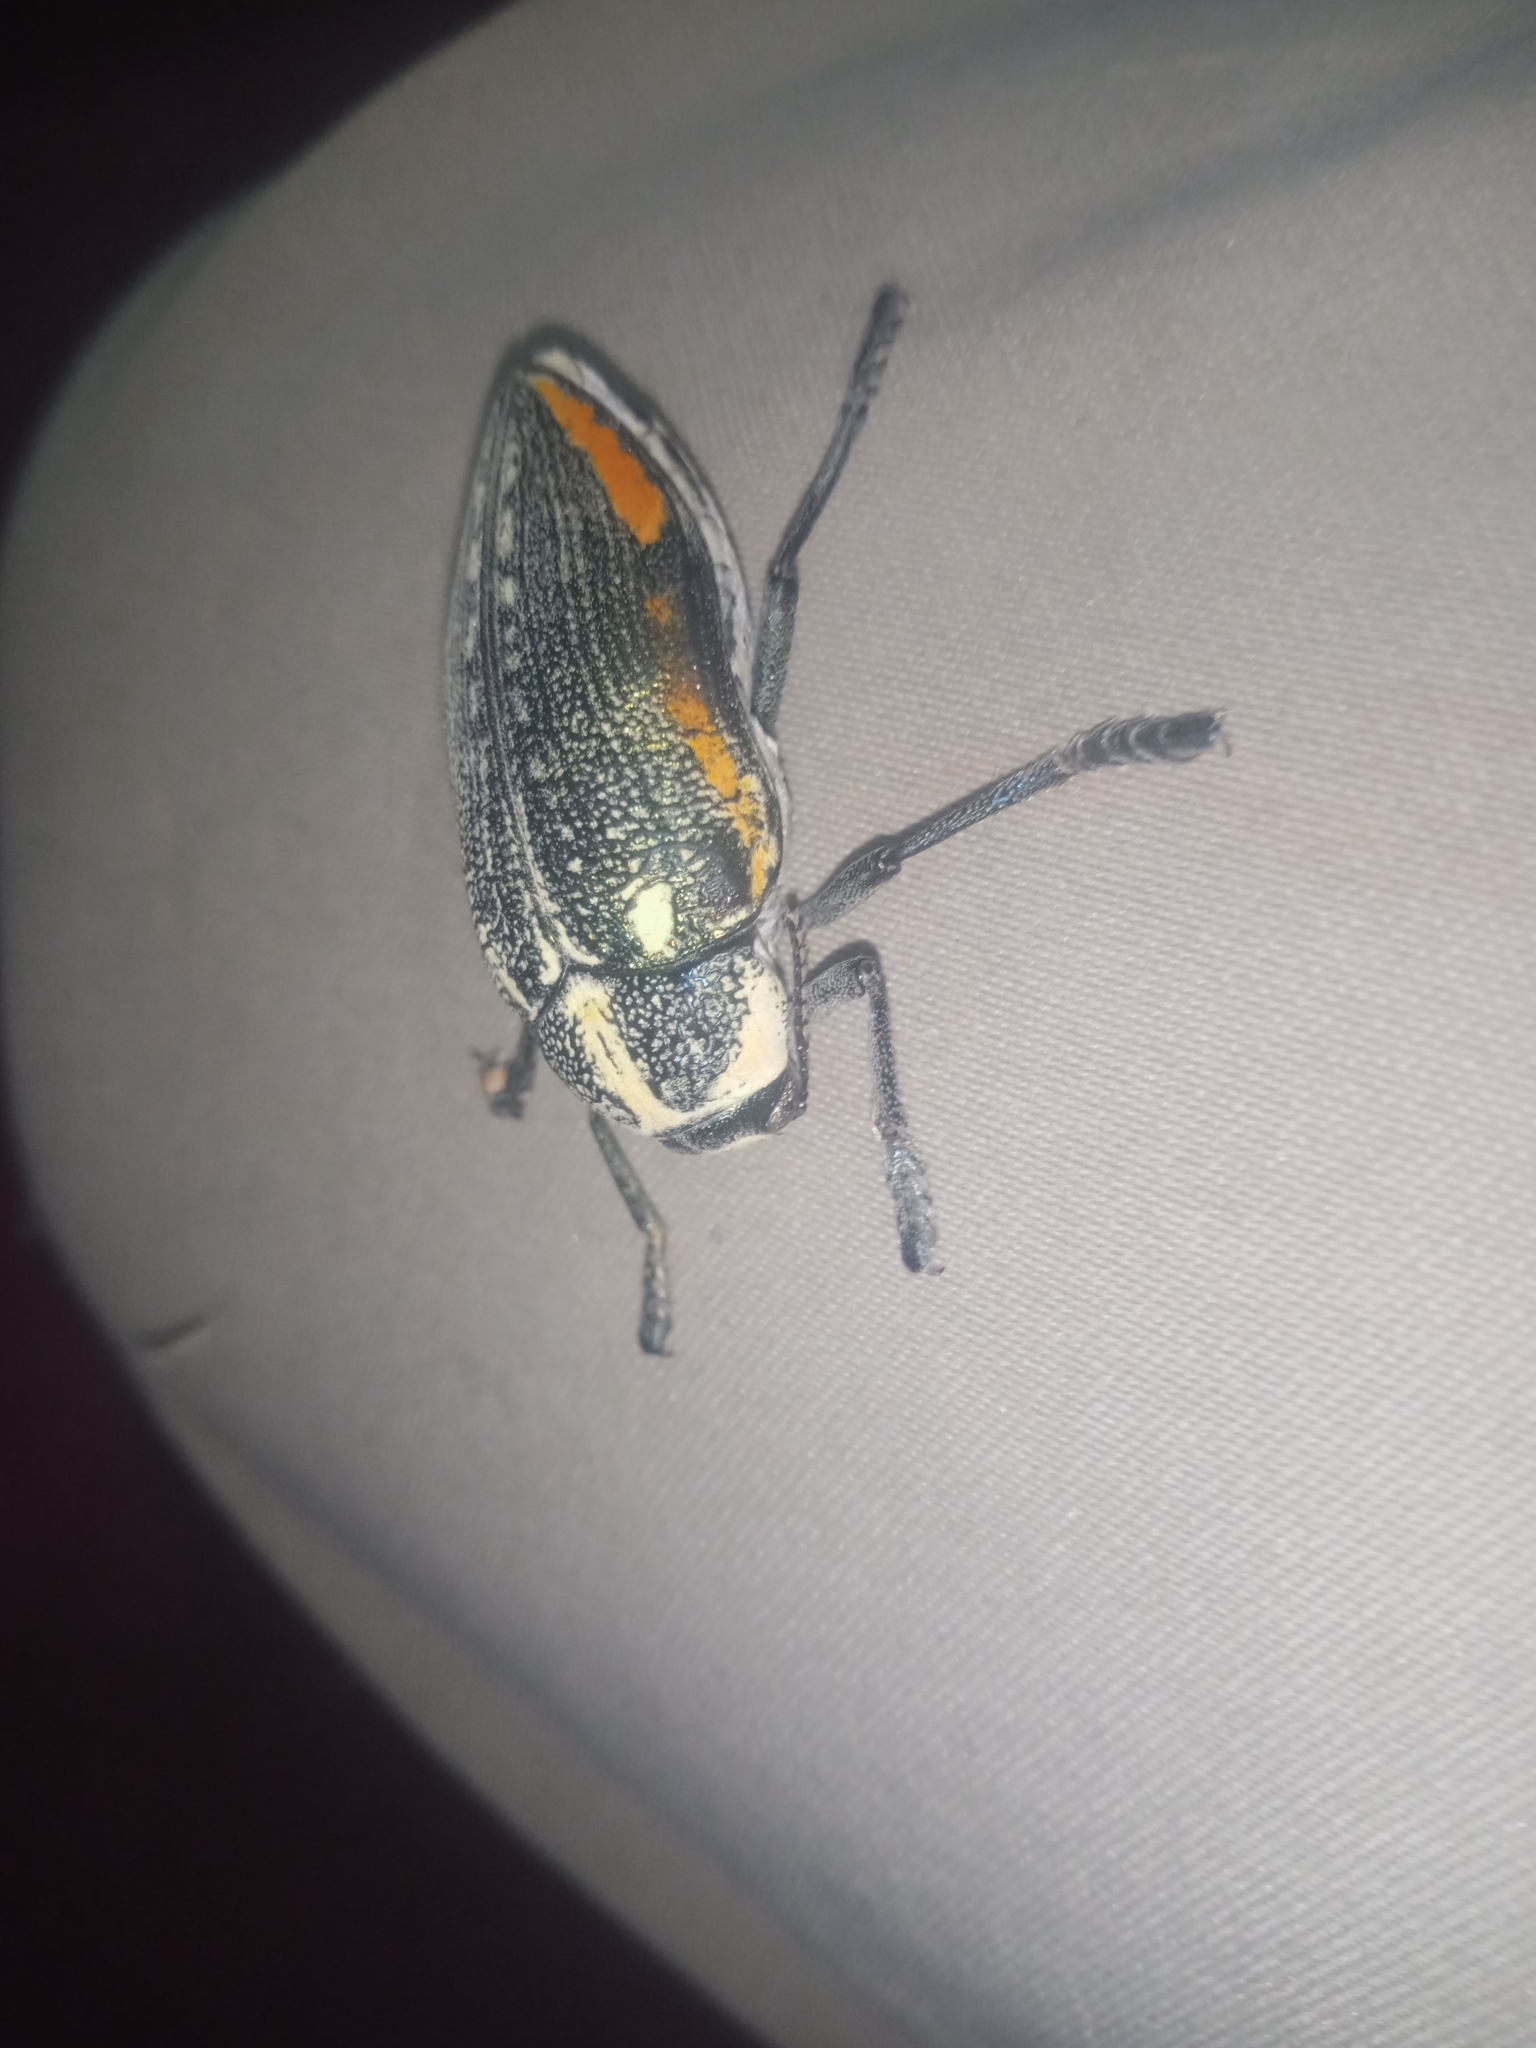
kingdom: Animalia
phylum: Arthropoda
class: Insecta
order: Coleoptera
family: Buprestidae
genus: Julodis
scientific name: Julodis fimbriata
